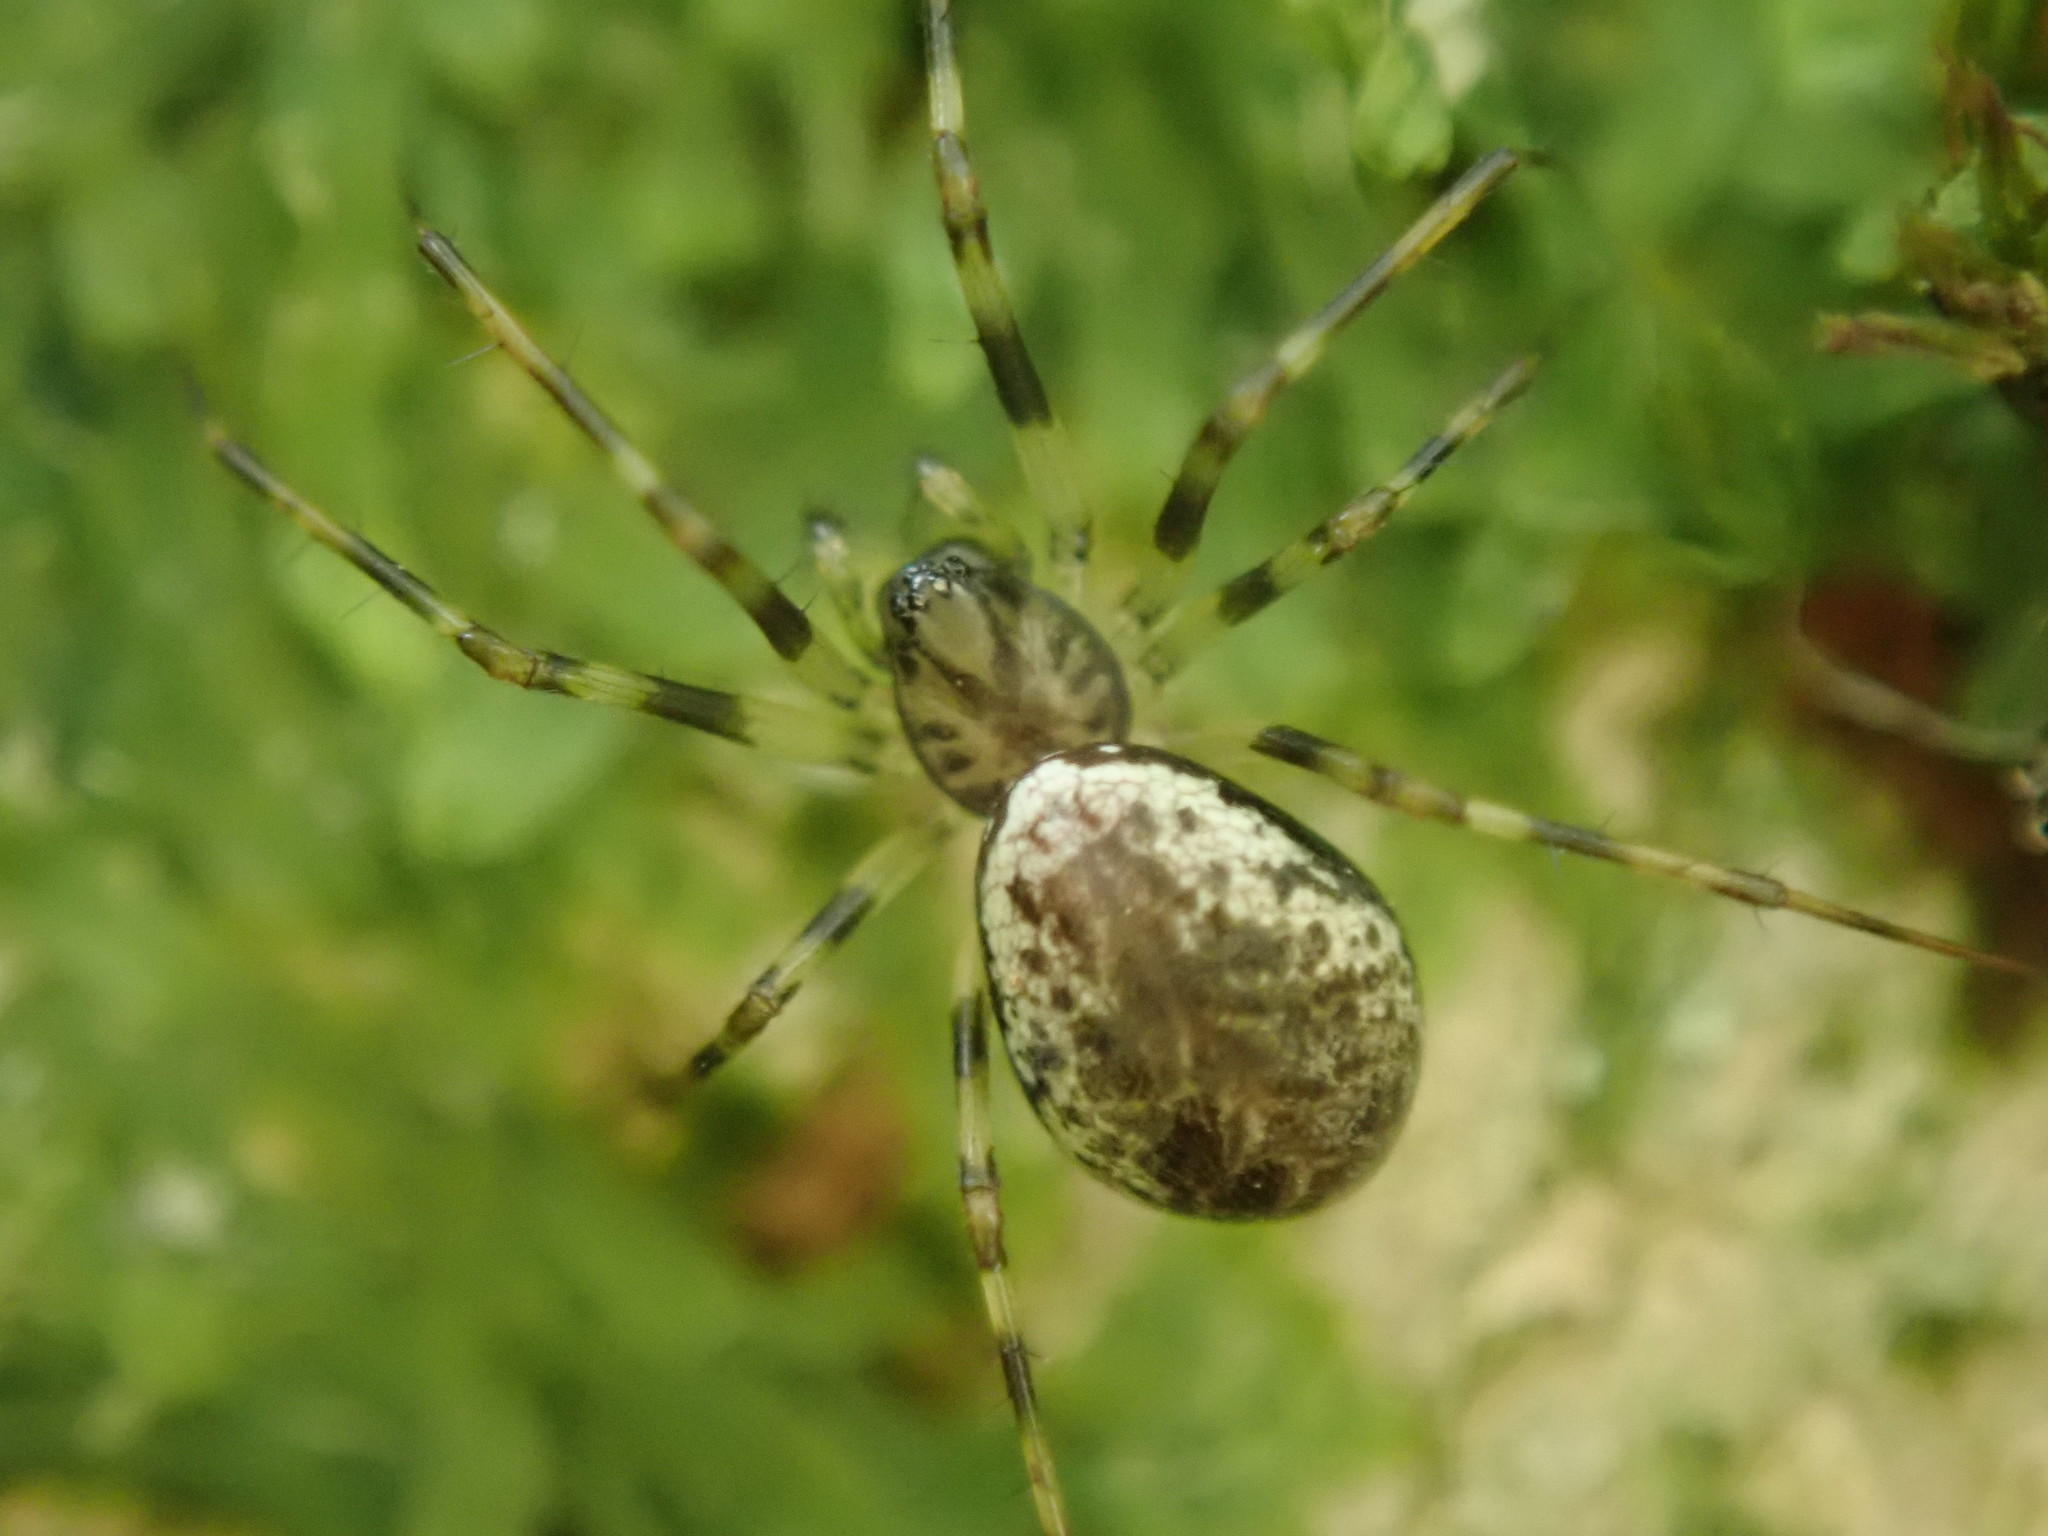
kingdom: Animalia
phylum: Arthropoda
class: Arachnida
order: Araneae
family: Linyphiidae
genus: Drapetisca
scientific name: Drapetisca socialis
